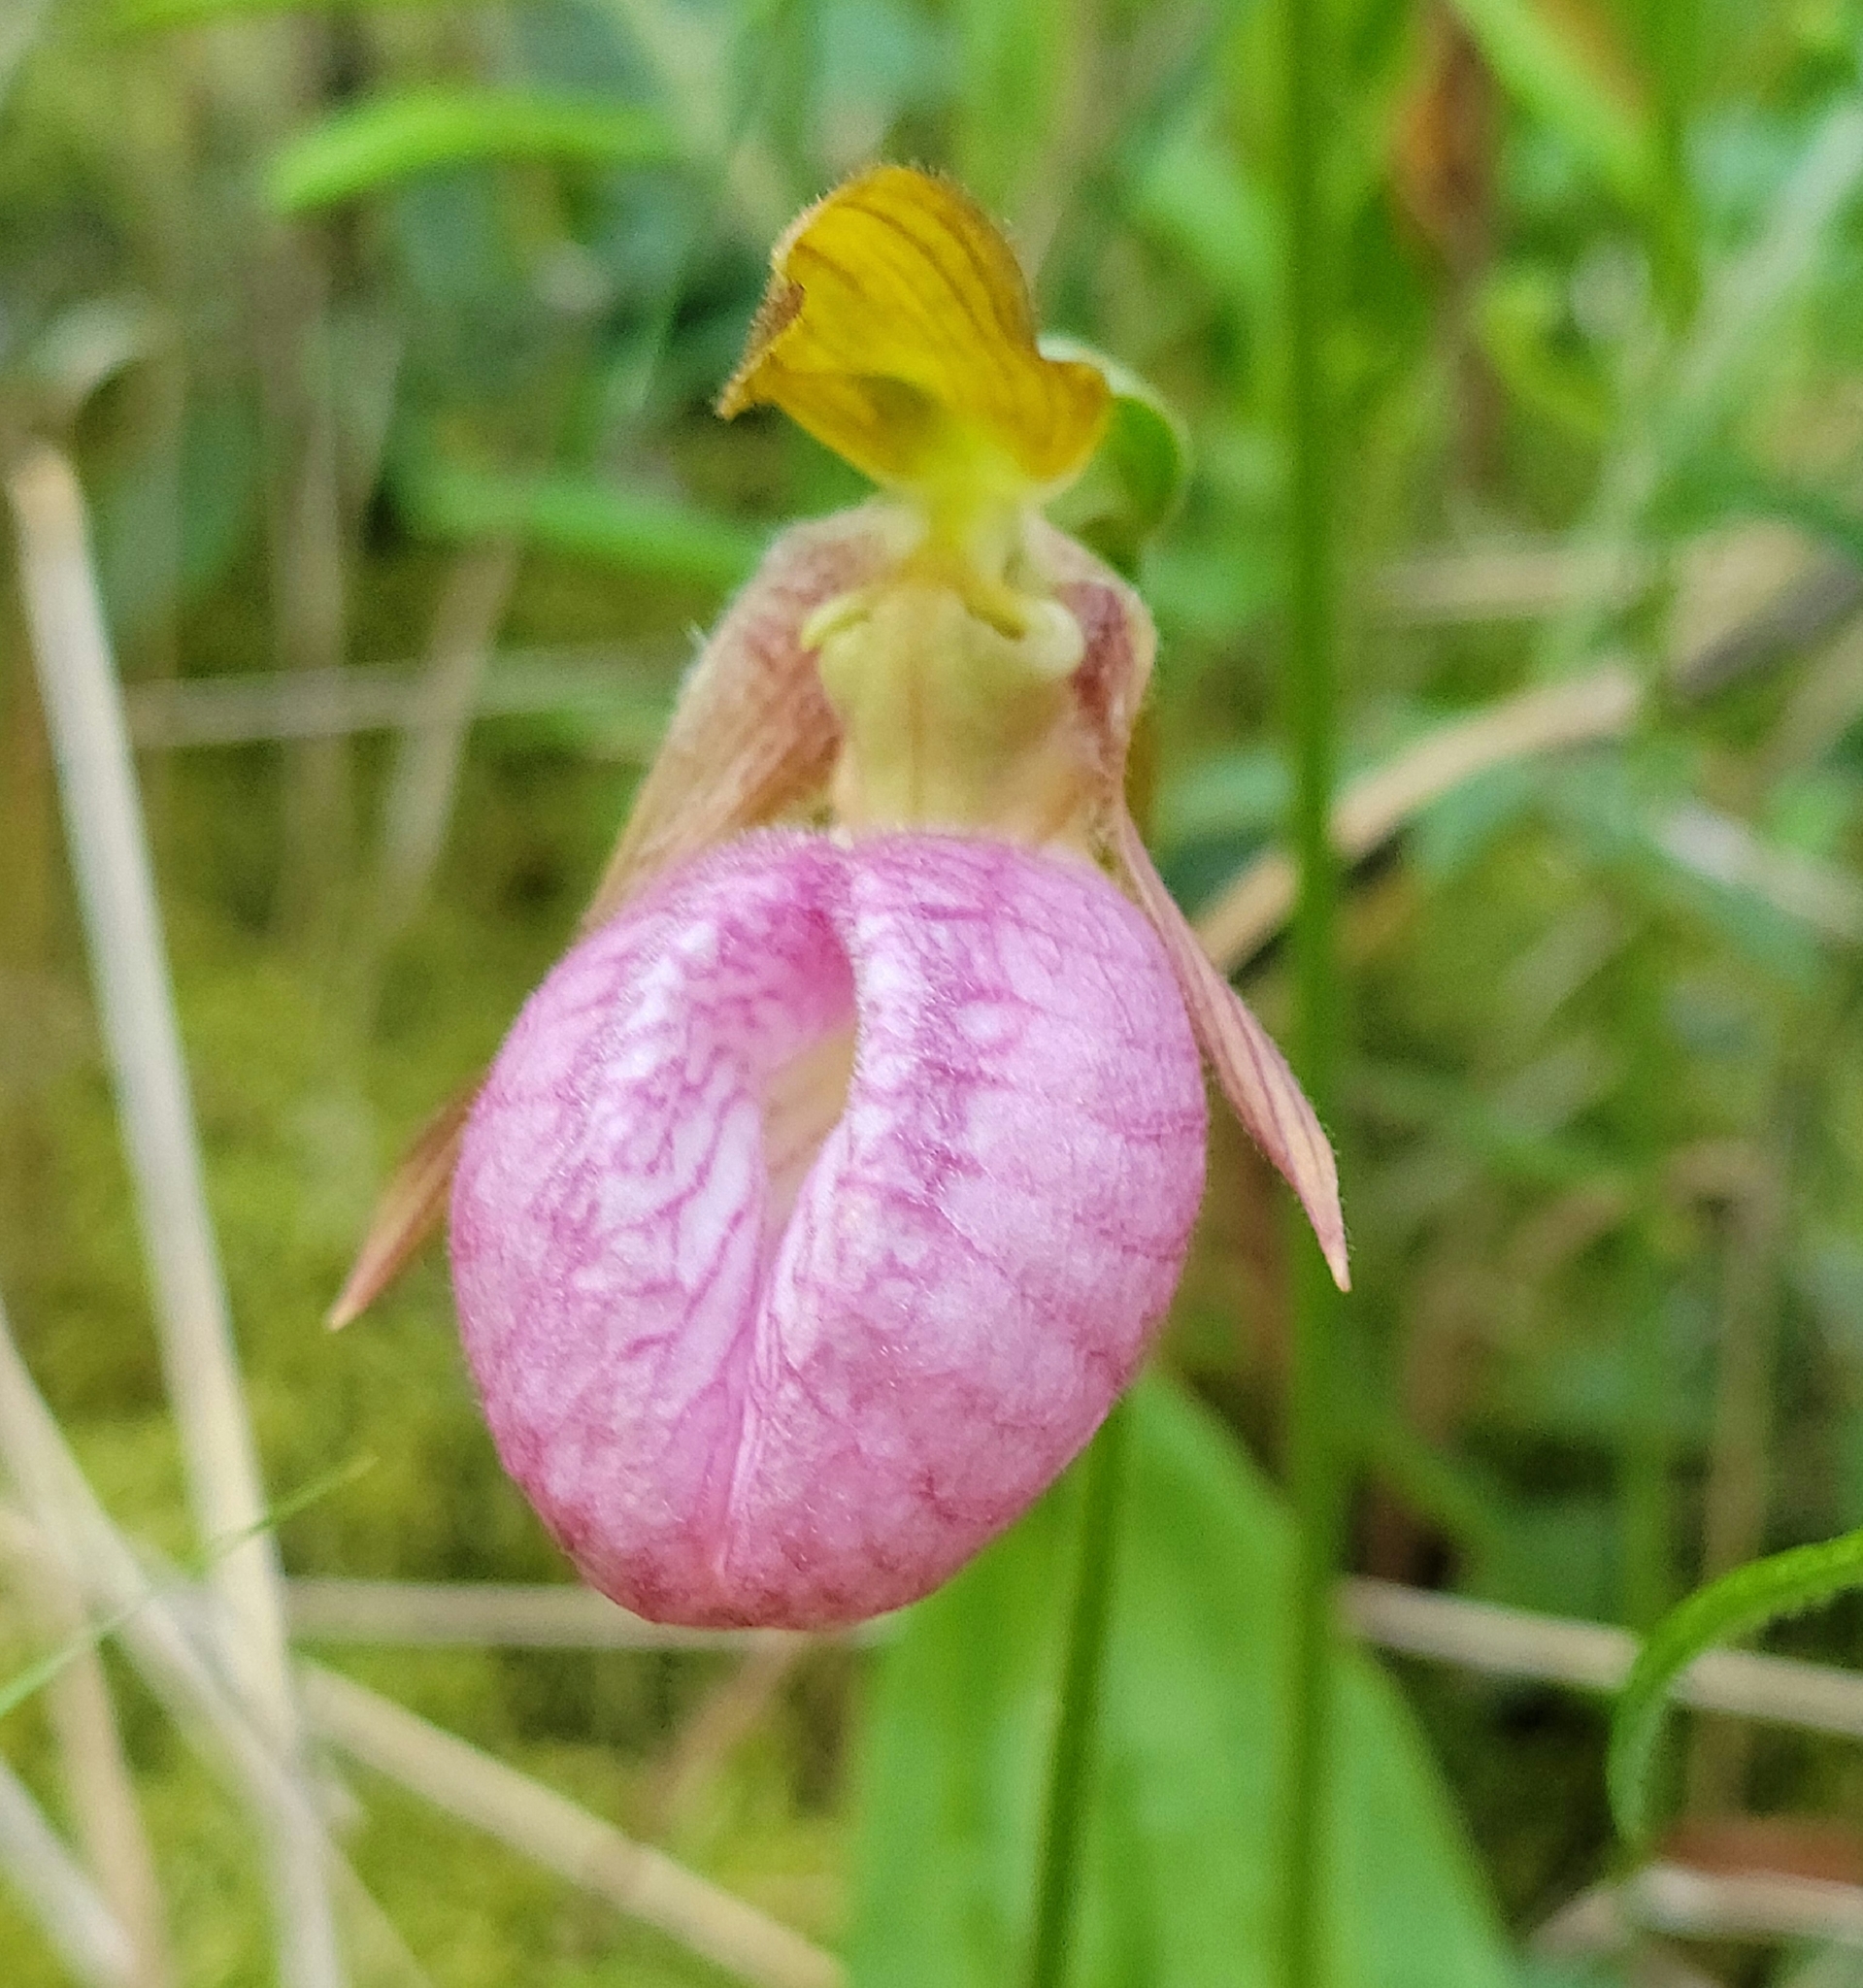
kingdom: Plantae
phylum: Tracheophyta
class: Liliopsida
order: Asparagales
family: Orchidaceae
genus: Cypripedium
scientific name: Cypripedium acaule
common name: Pink lady's-slipper
